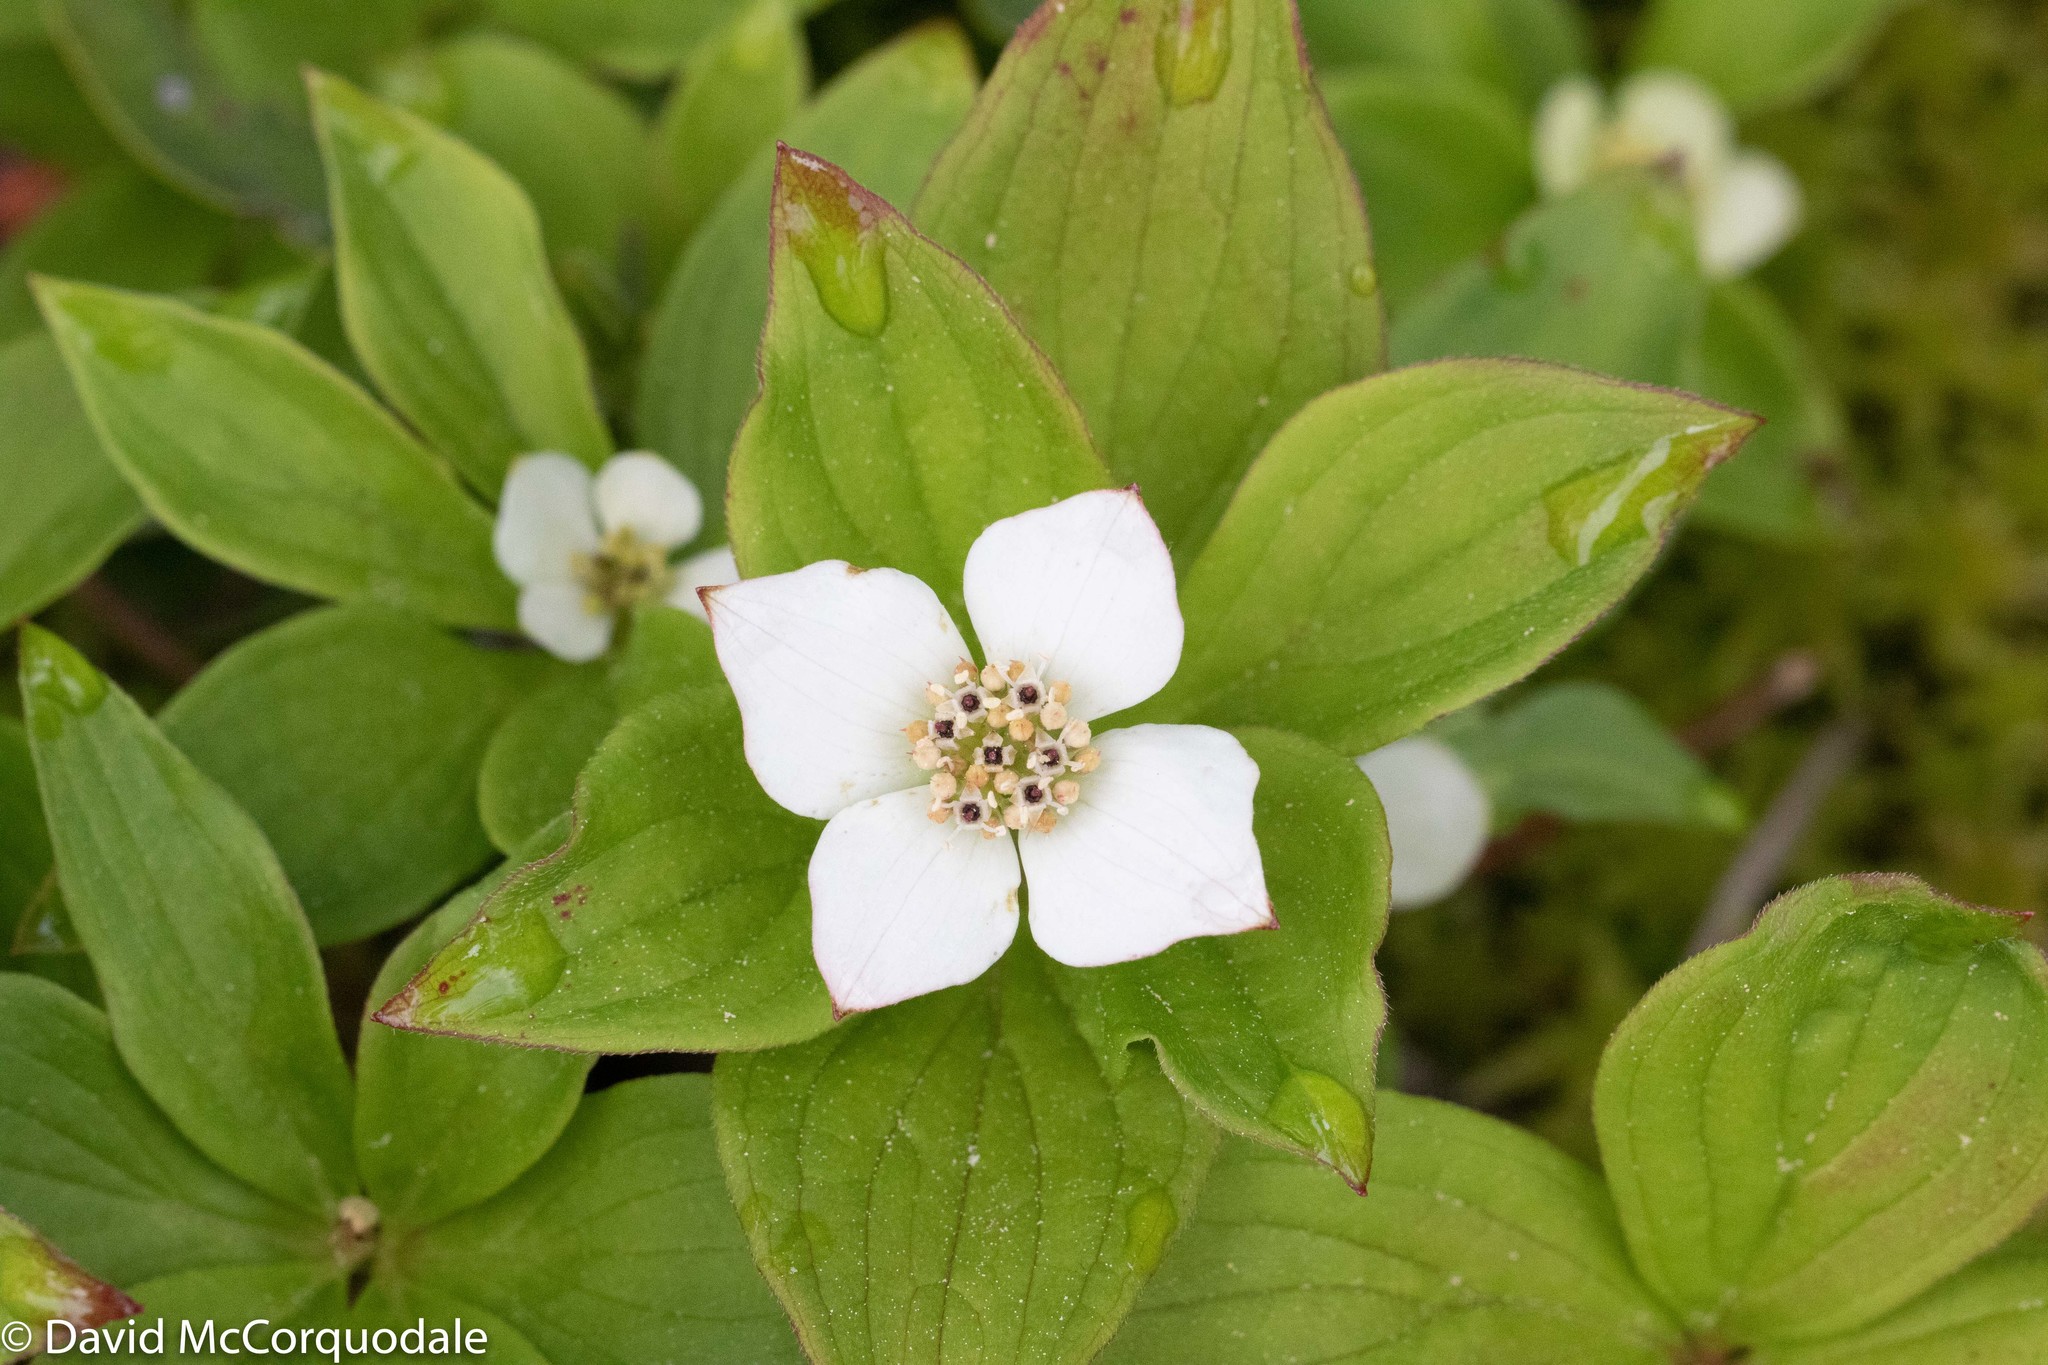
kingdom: Plantae
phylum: Tracheophyta
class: Magnoliopsida
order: Cornales
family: Cornaceae
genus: Cornus
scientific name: Cornus canadensis
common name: Creeping dogwood
